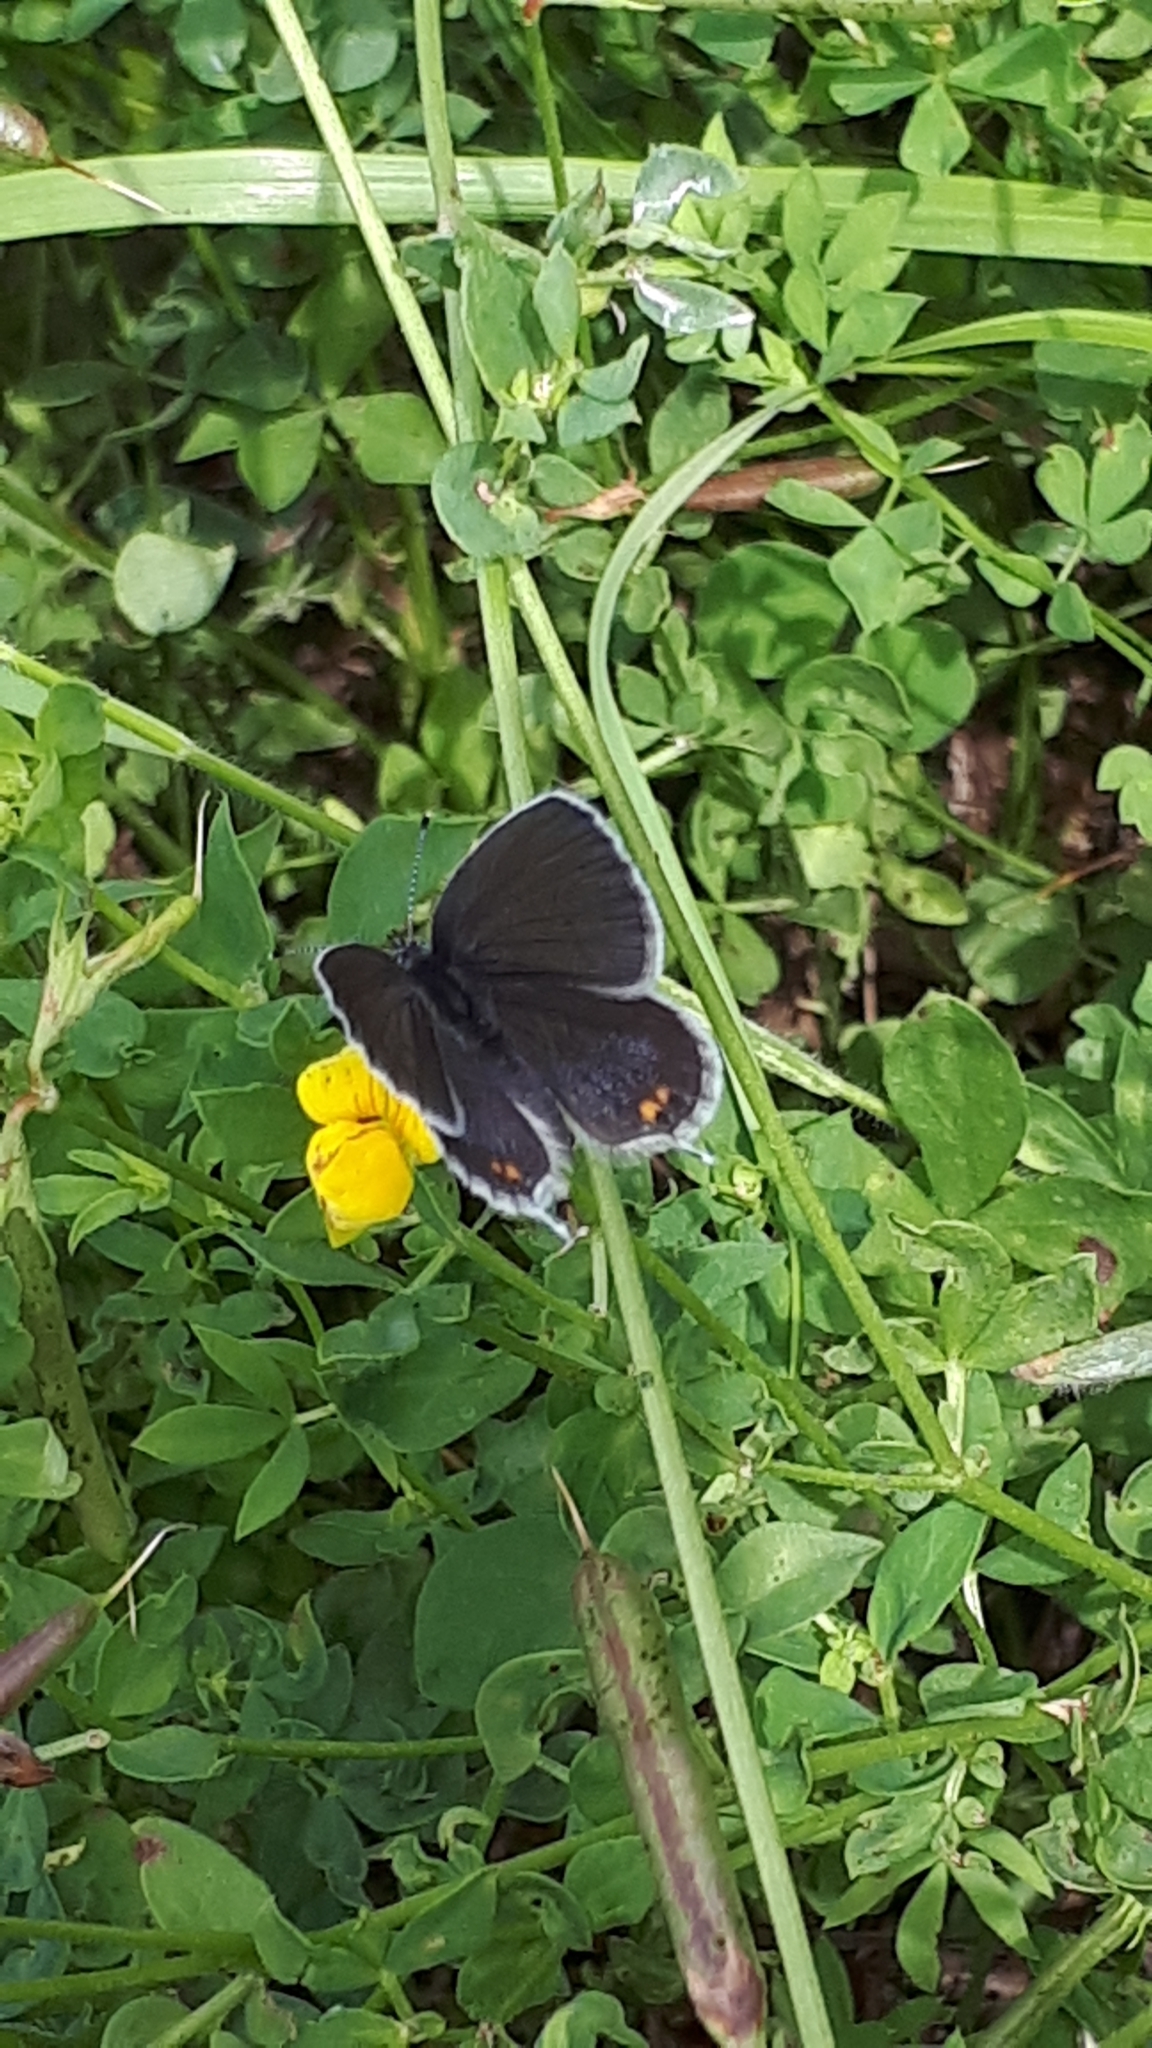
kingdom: Animalia
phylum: Arthropoda
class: Insecta
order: Lepidoptera
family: Lycaenidae
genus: Elkalyce
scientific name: Elkalyce argiades
